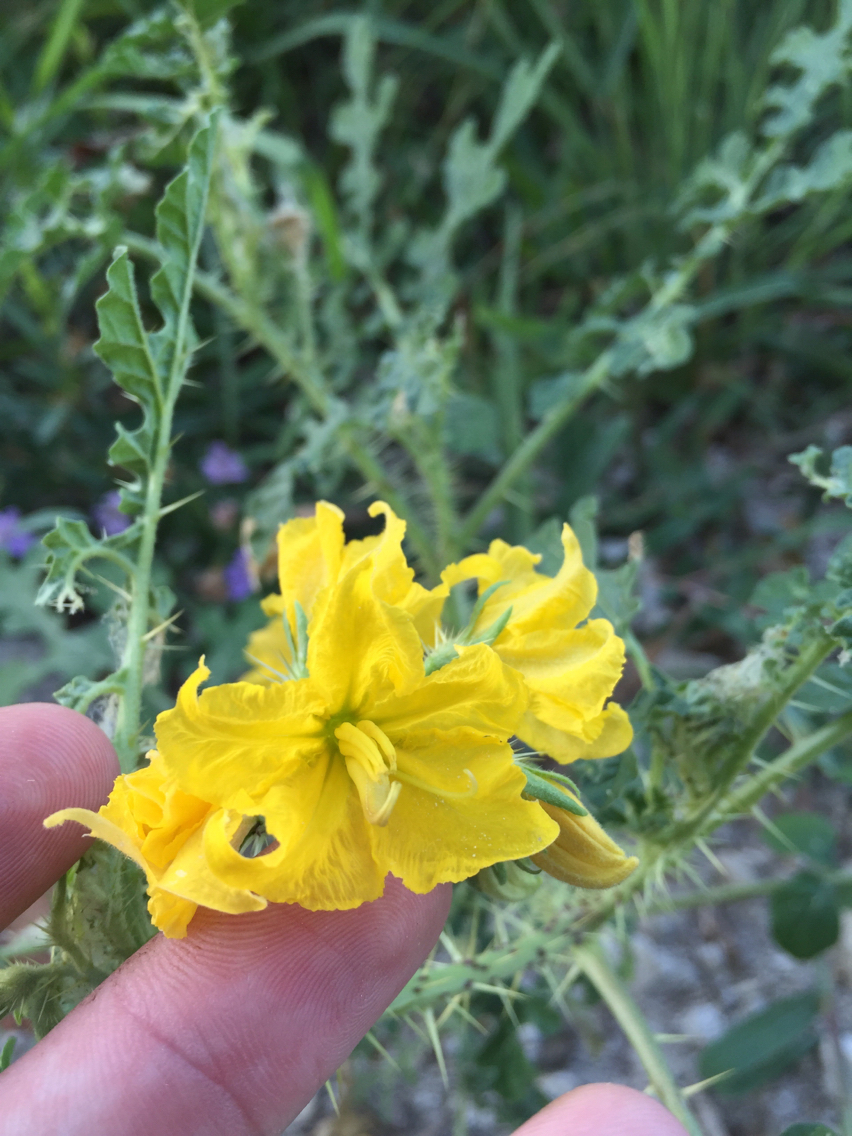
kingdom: Plantae
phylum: Tracheophyta
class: Magnoliopsida
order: Solanales
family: Solanaceae
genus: Solanum
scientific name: Solanum angustifolium
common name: Buffalobur nightshade
